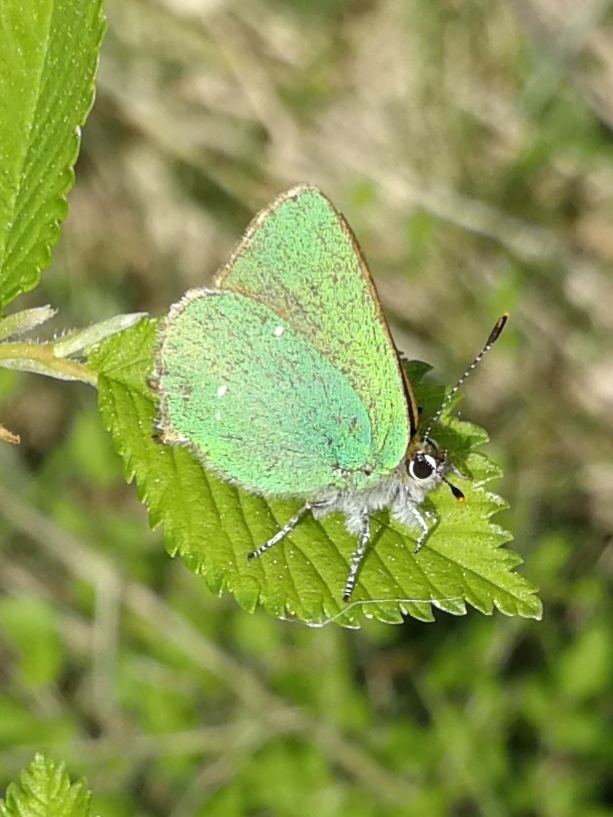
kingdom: Animalia
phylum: Arthropoda
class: Insecta
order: Lepidoptera
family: Lycaenidae
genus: Callophrys
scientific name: Callophrys rubi
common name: Green hairstreak
